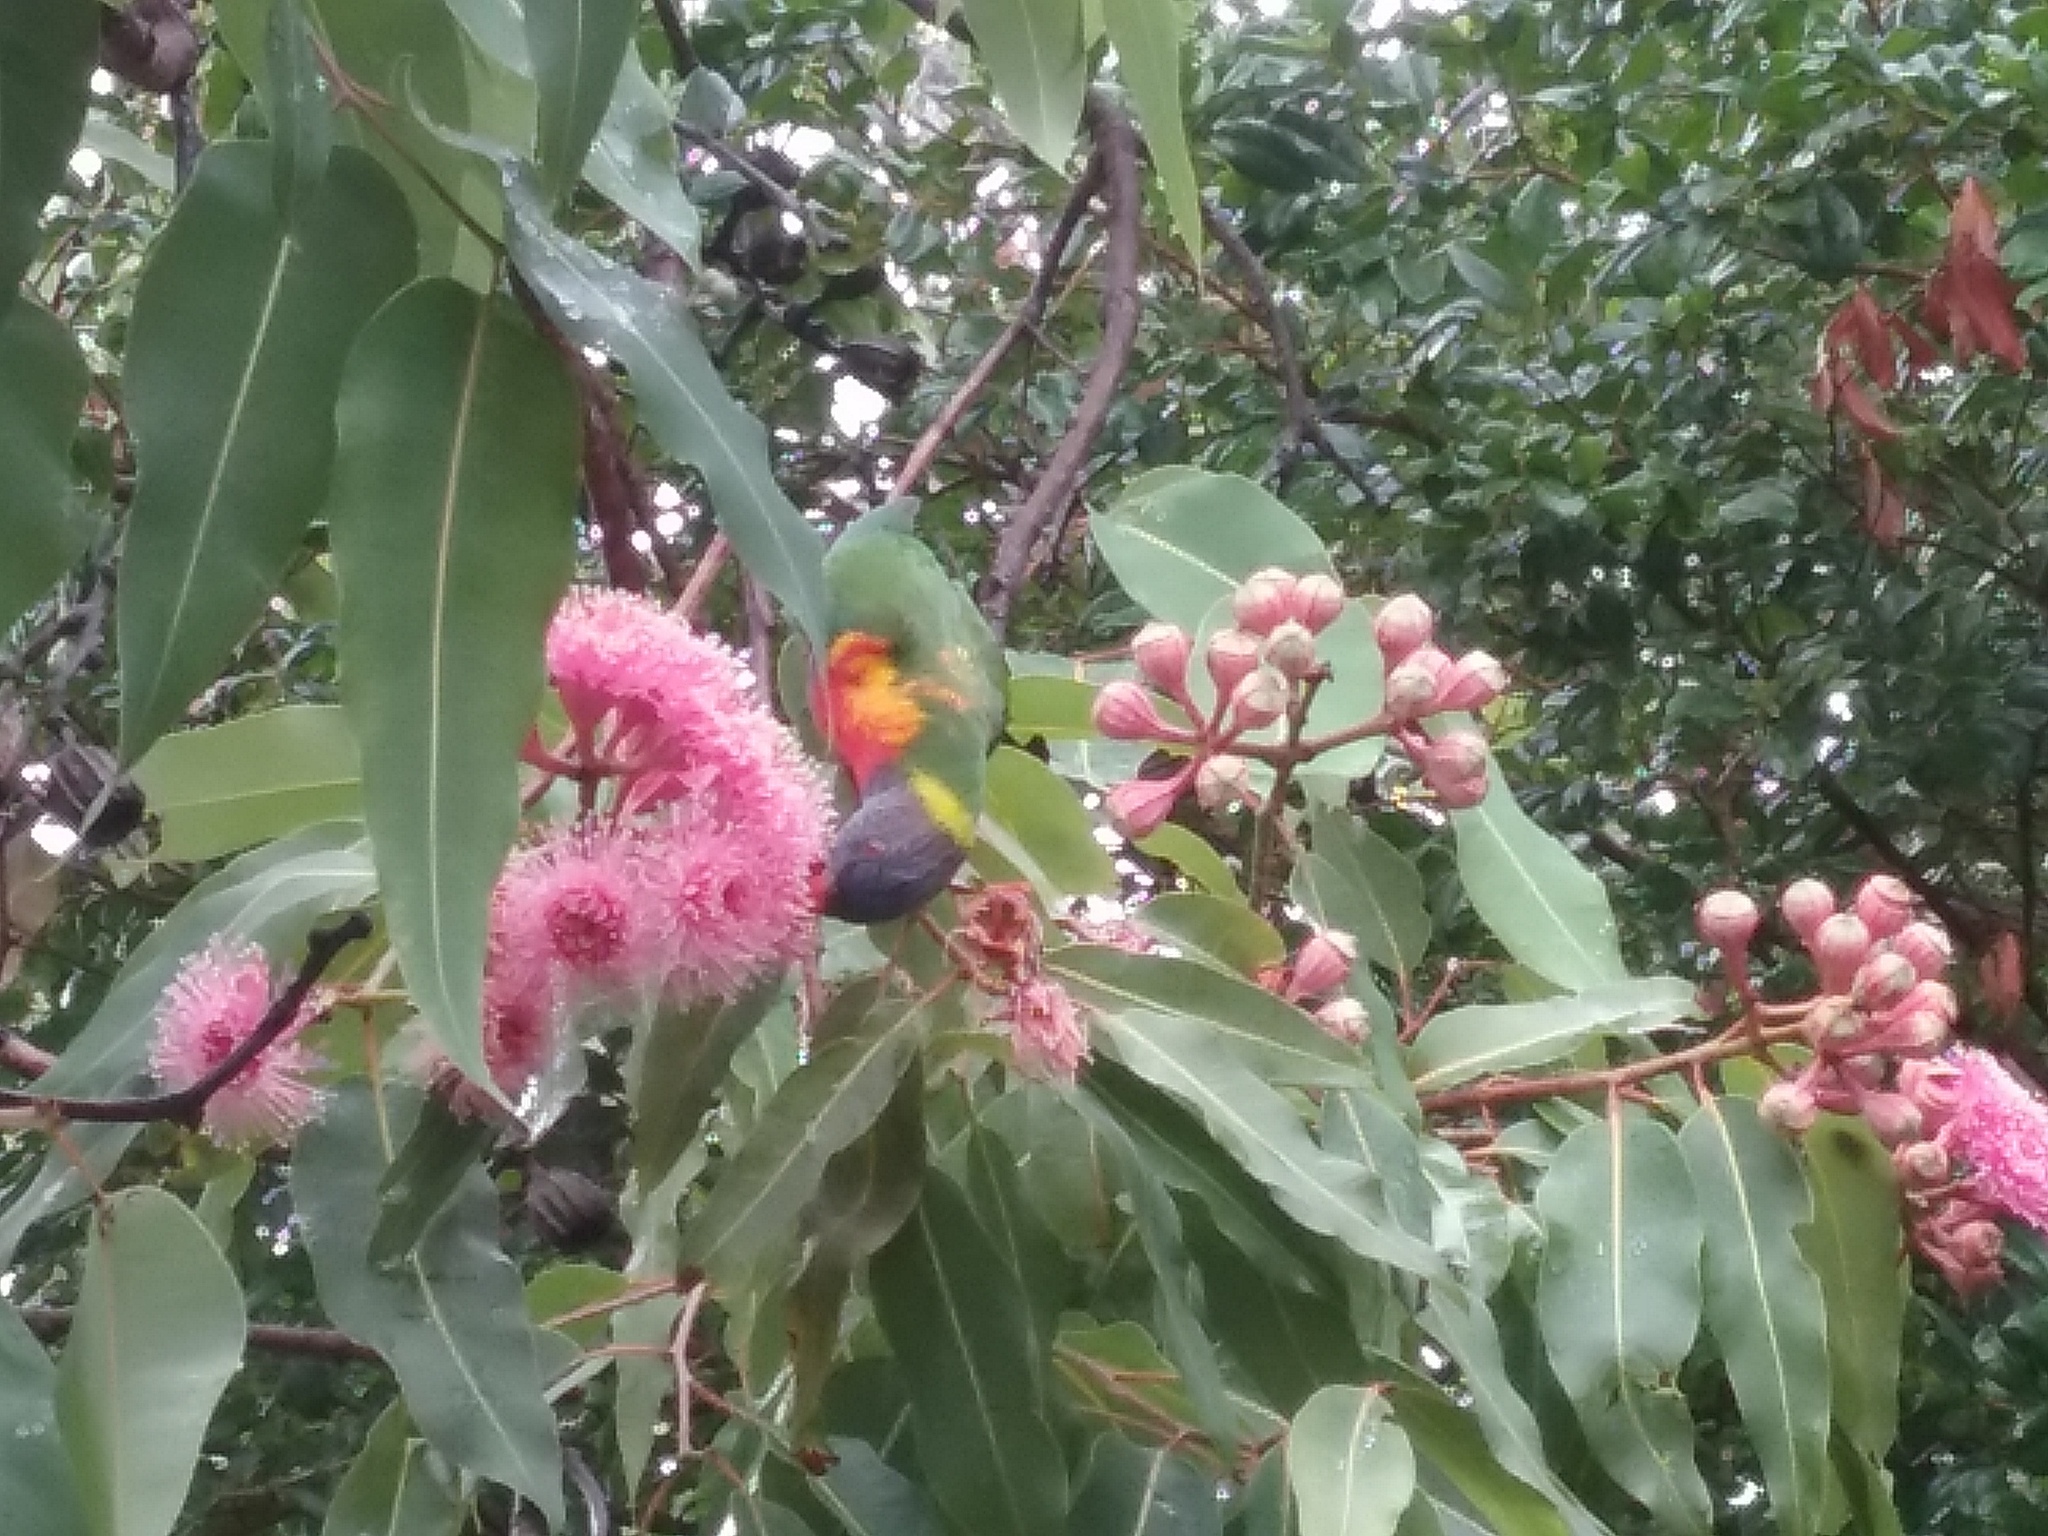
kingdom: Animalia
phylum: Chordata
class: Aves
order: Psittaciformes
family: Psittacidae
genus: Trichoglossus
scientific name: Trichoglossus haematodus
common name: Coconut lorikeet
